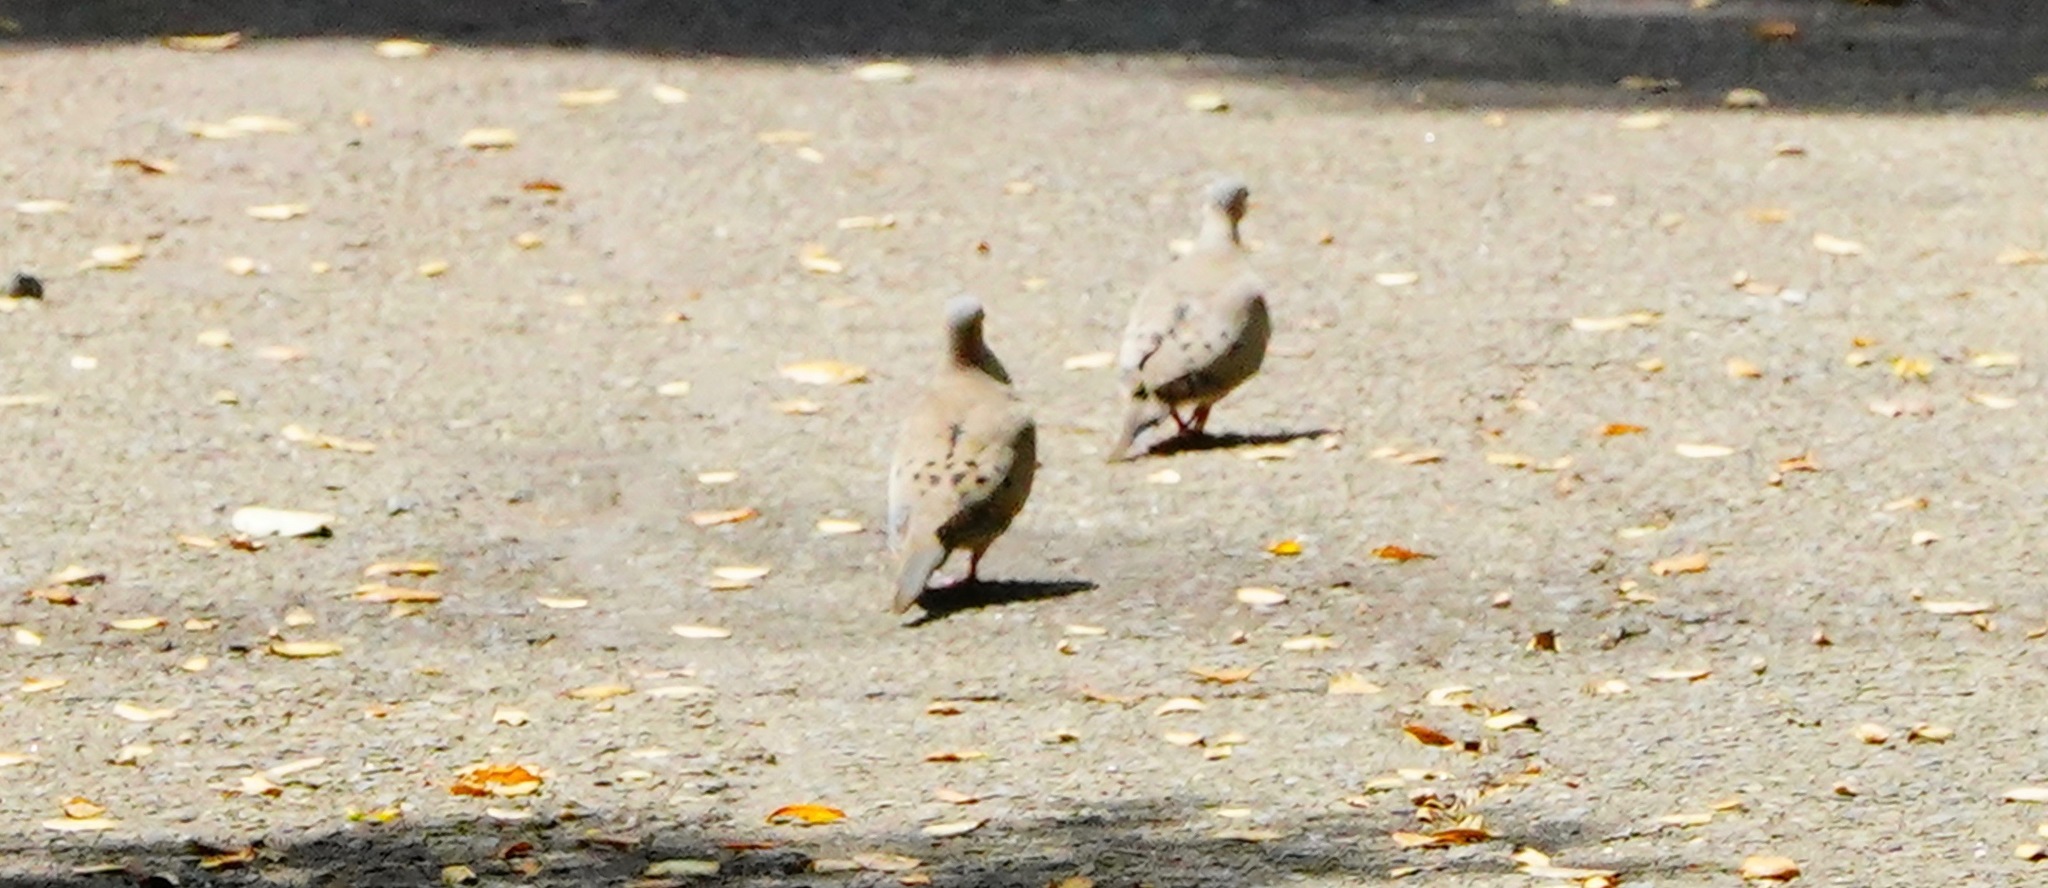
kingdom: Animalia
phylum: Chordata
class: Aves
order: Columbiformes
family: Columbidae
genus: Zenaida
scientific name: Zenaida macroura
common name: Mourning dove
